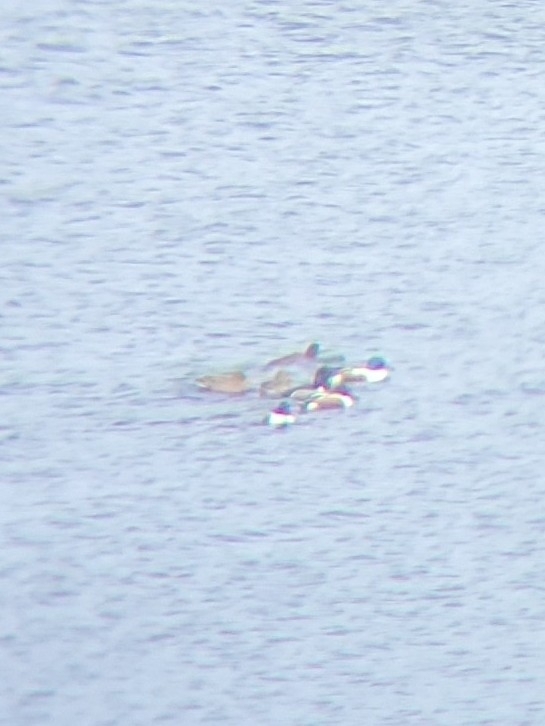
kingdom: Animalia
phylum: Chordata
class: Aves
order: Anseriformes
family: Anatidae
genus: Spatula
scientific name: Spatula clypeata
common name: Northern shoveler
